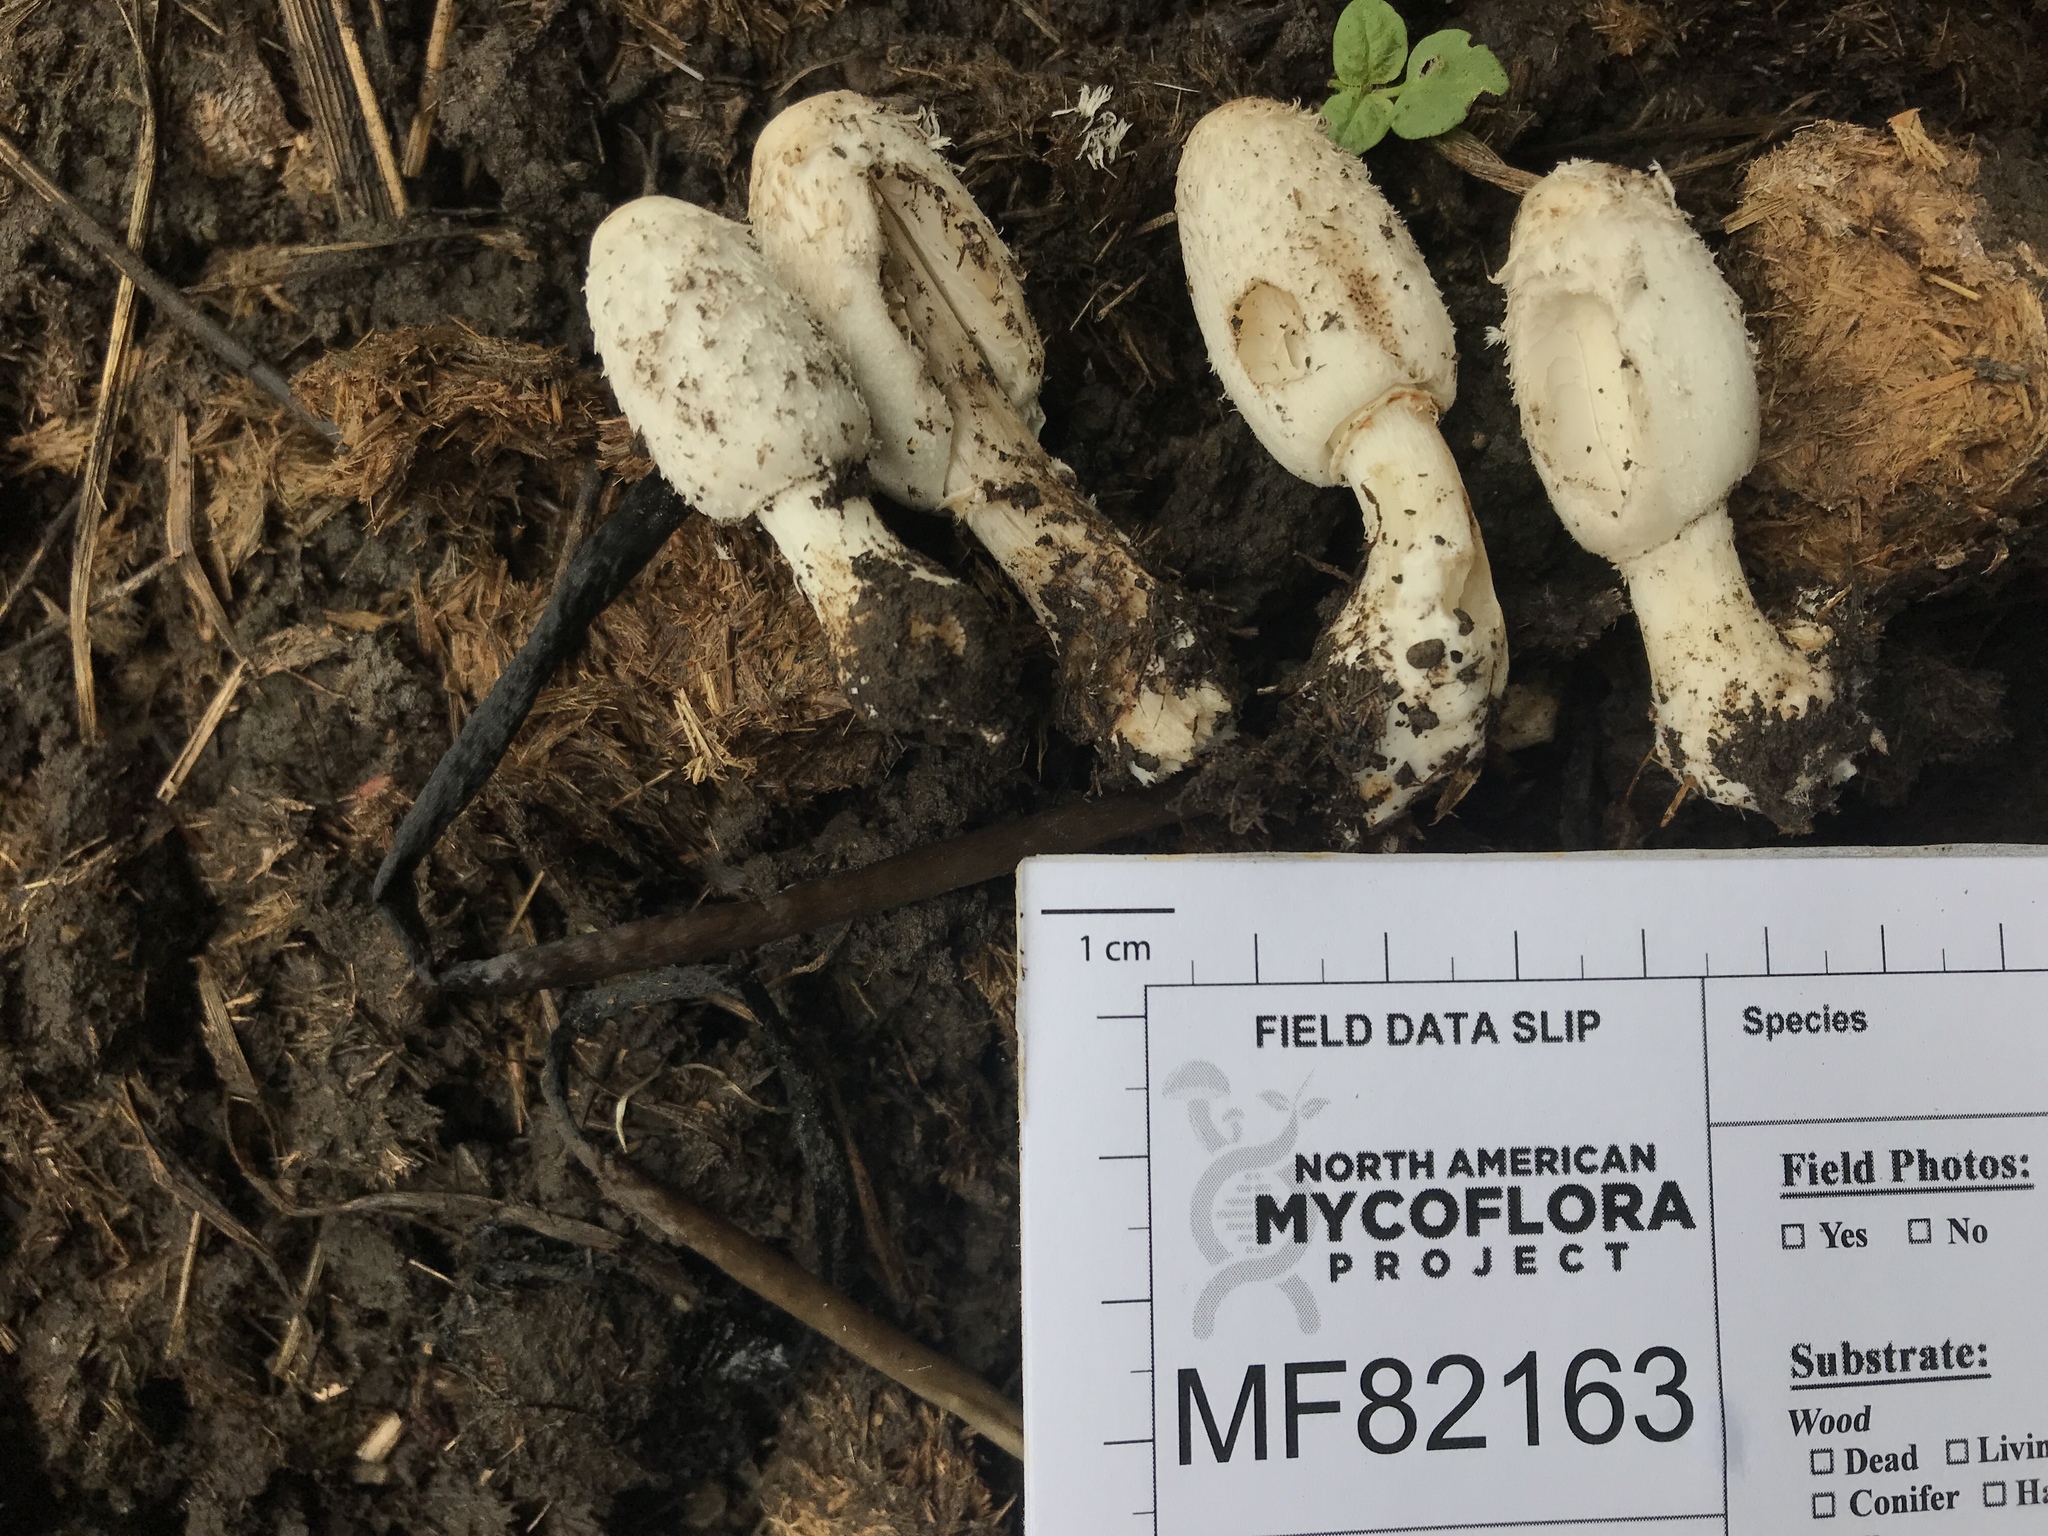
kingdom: Fungi
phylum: Basidiomycota
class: Agaricomycetes
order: Agaricales
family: Agaricaceae
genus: Coprinus
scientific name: Coprinus sterquilinus
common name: Midden inkcap
